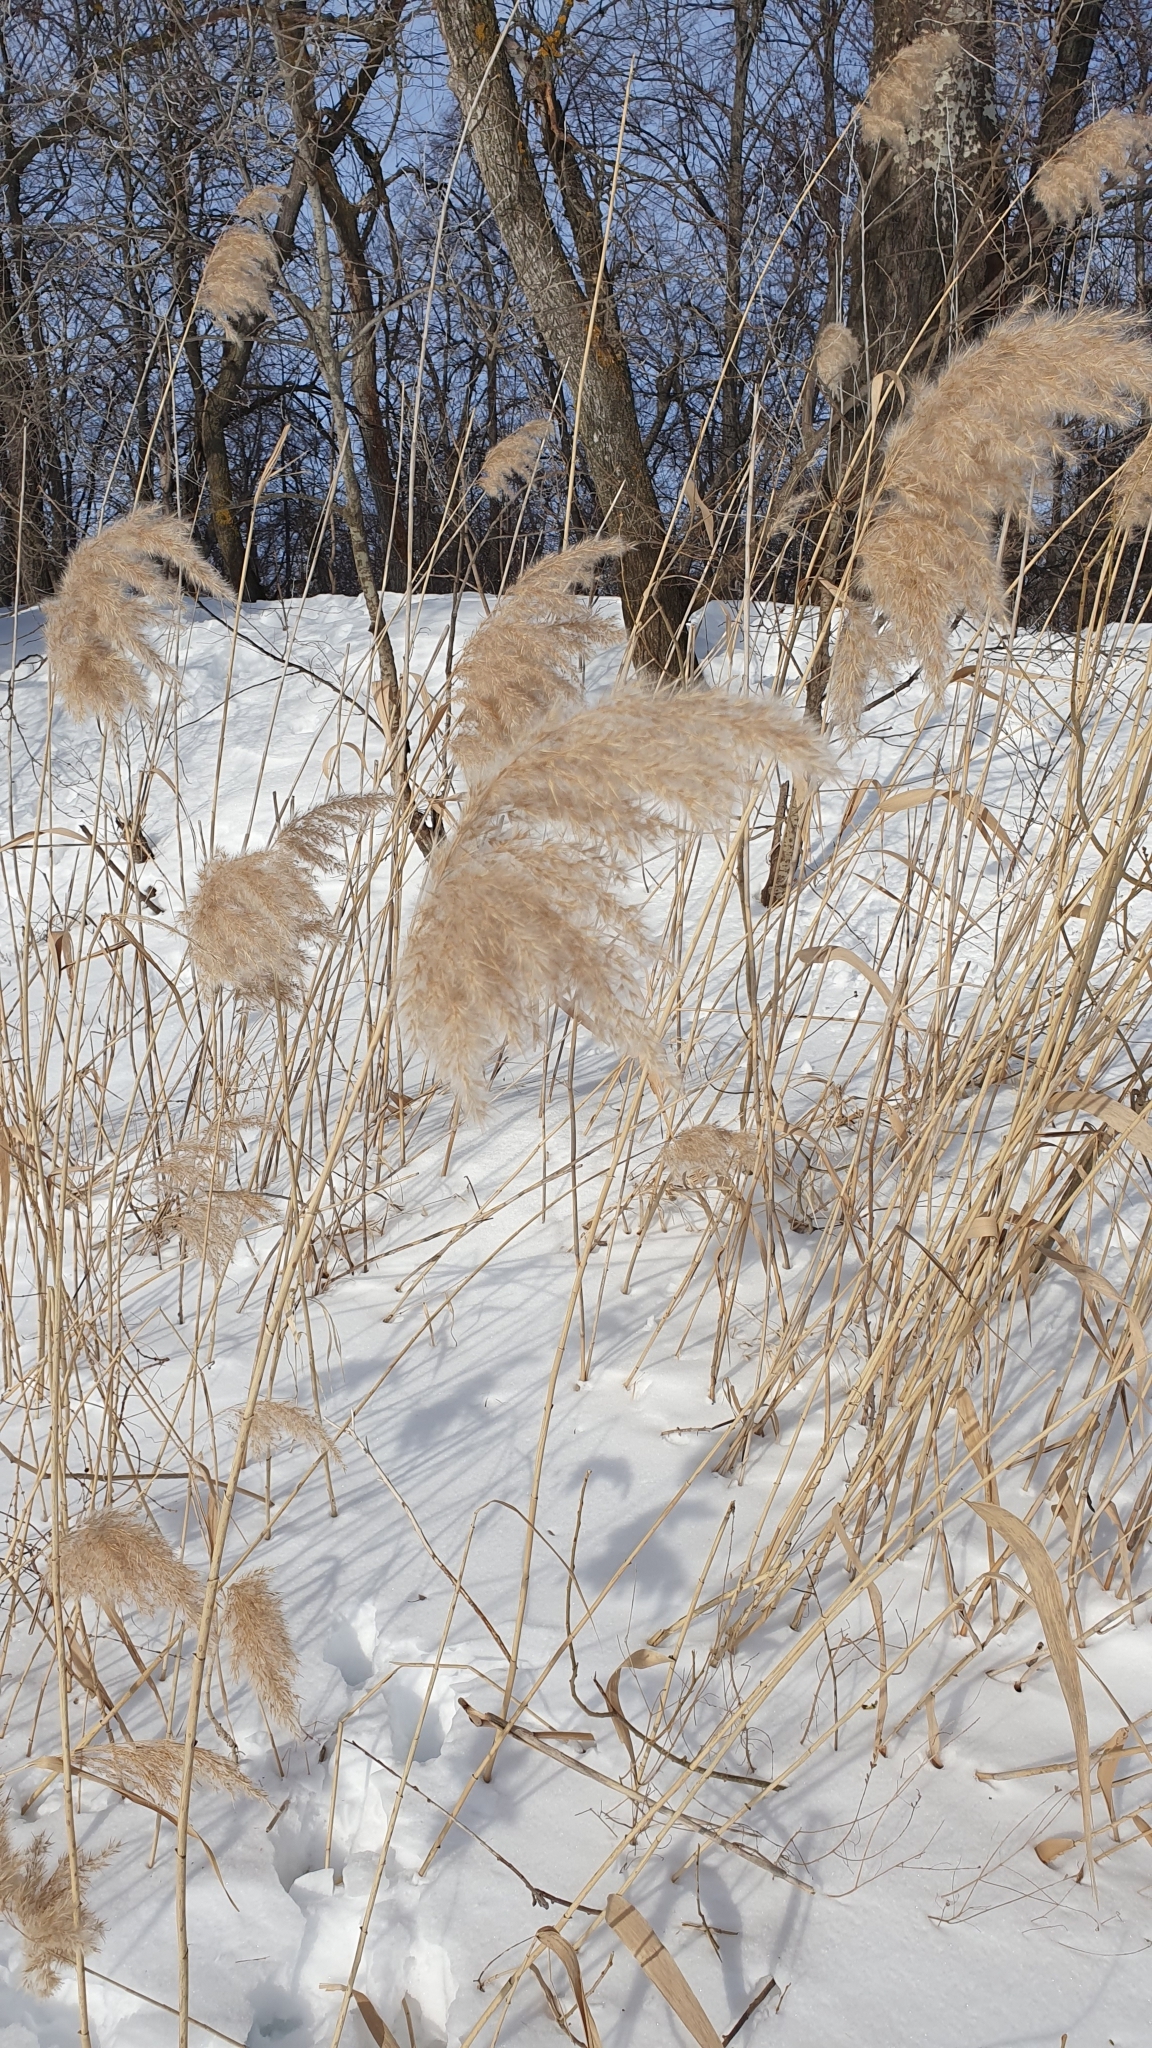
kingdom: Plantae
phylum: Tracheophyta
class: Liliopsida
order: Poales
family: Poaceae
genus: Phragmites
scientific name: Phragmites australis
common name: Common reed
